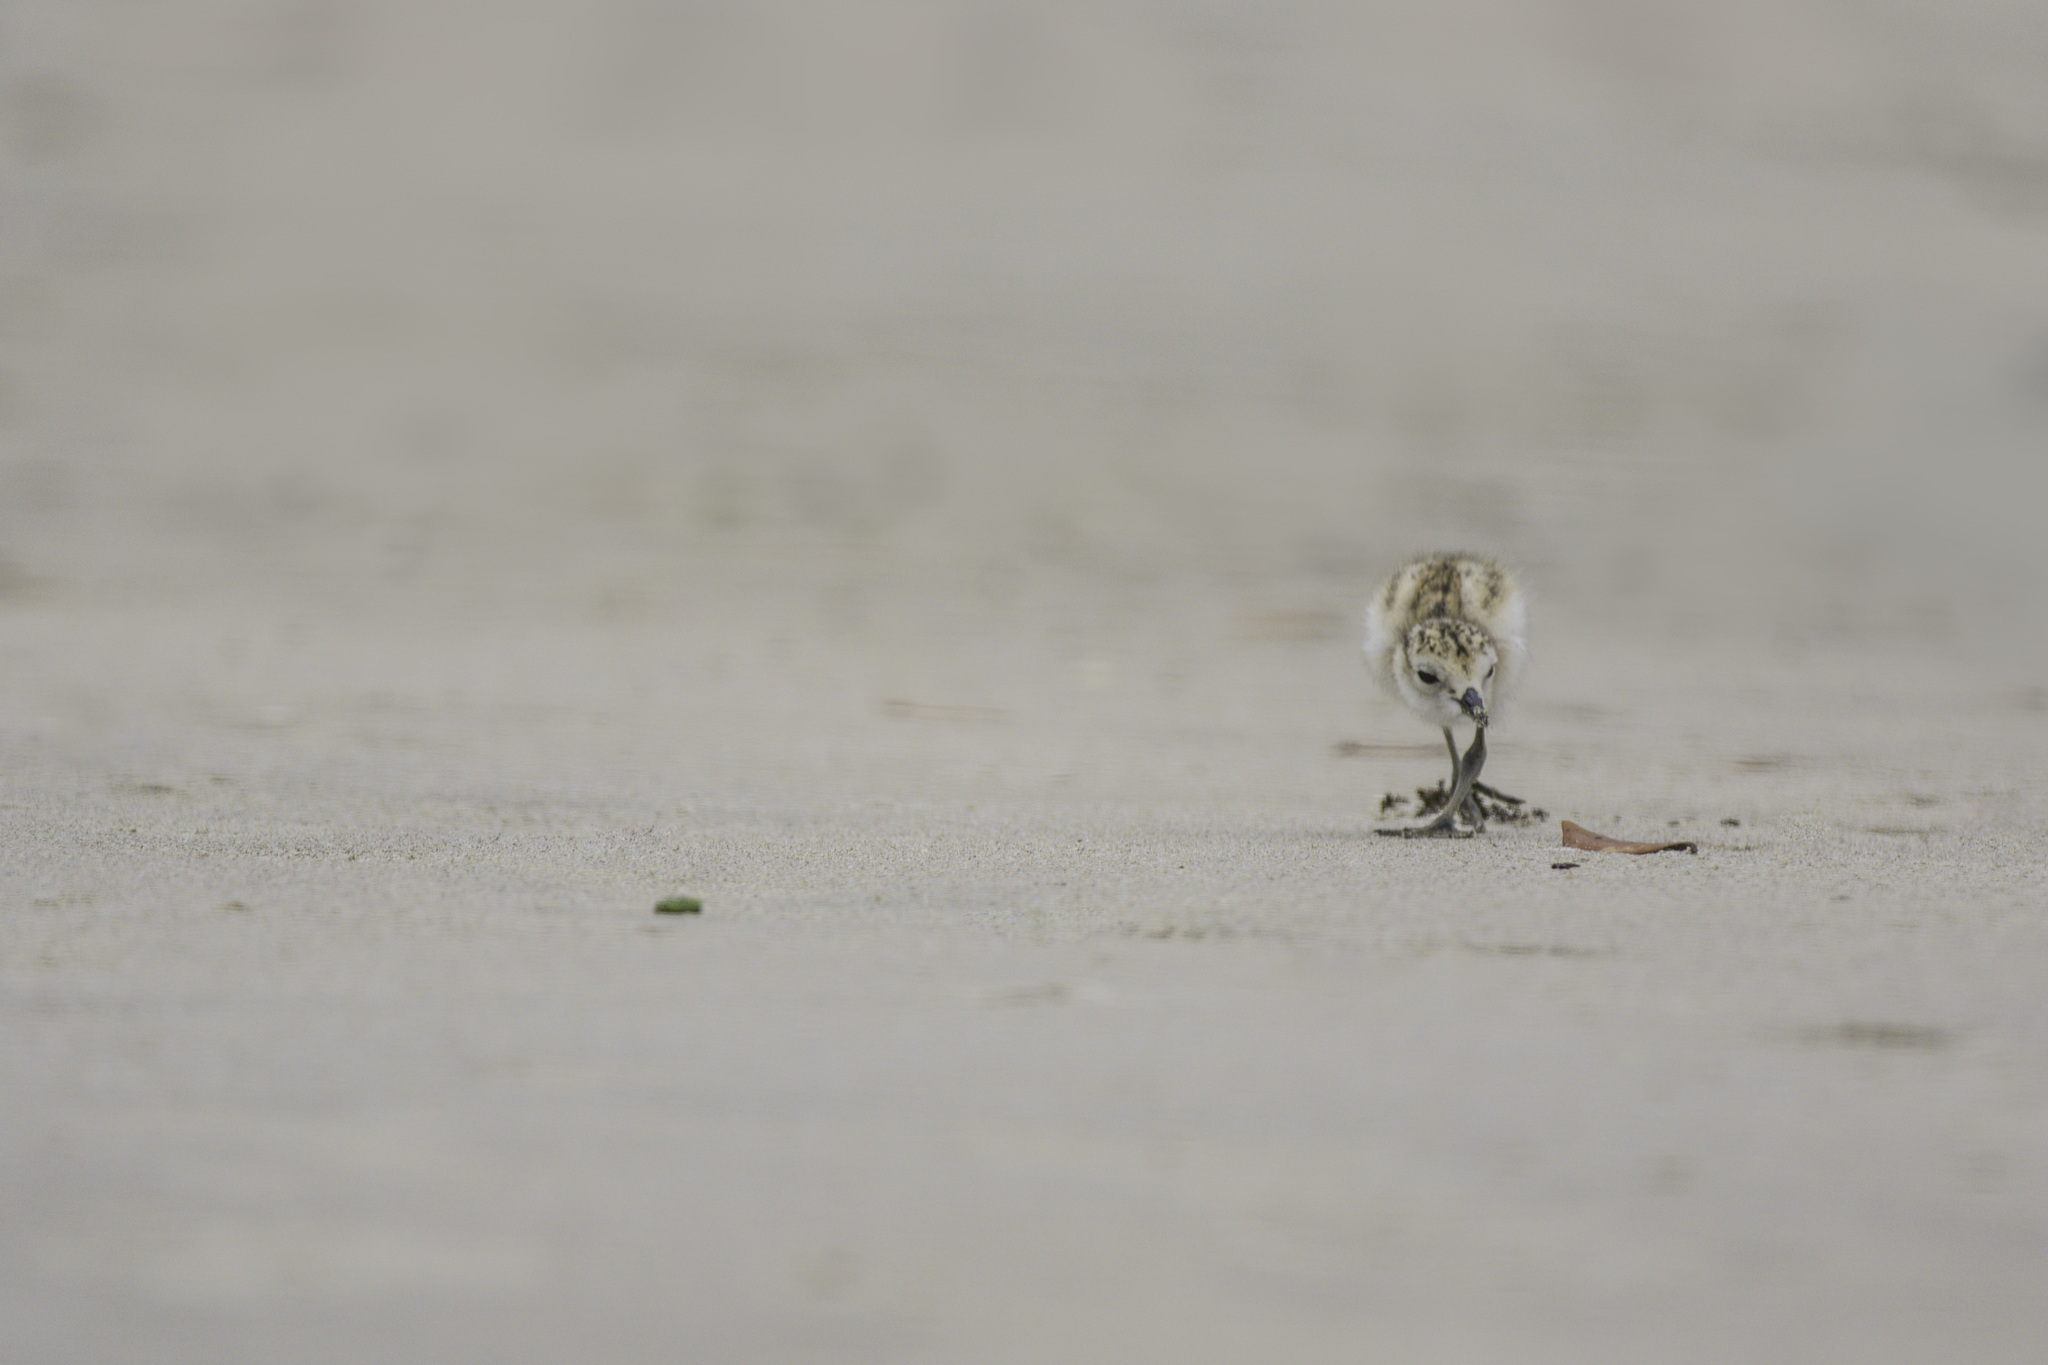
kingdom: Animalia
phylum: Chordata
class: Aves
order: Charadriiformes
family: Charadriidae
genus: Anarhynchus
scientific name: Anarhynchus
